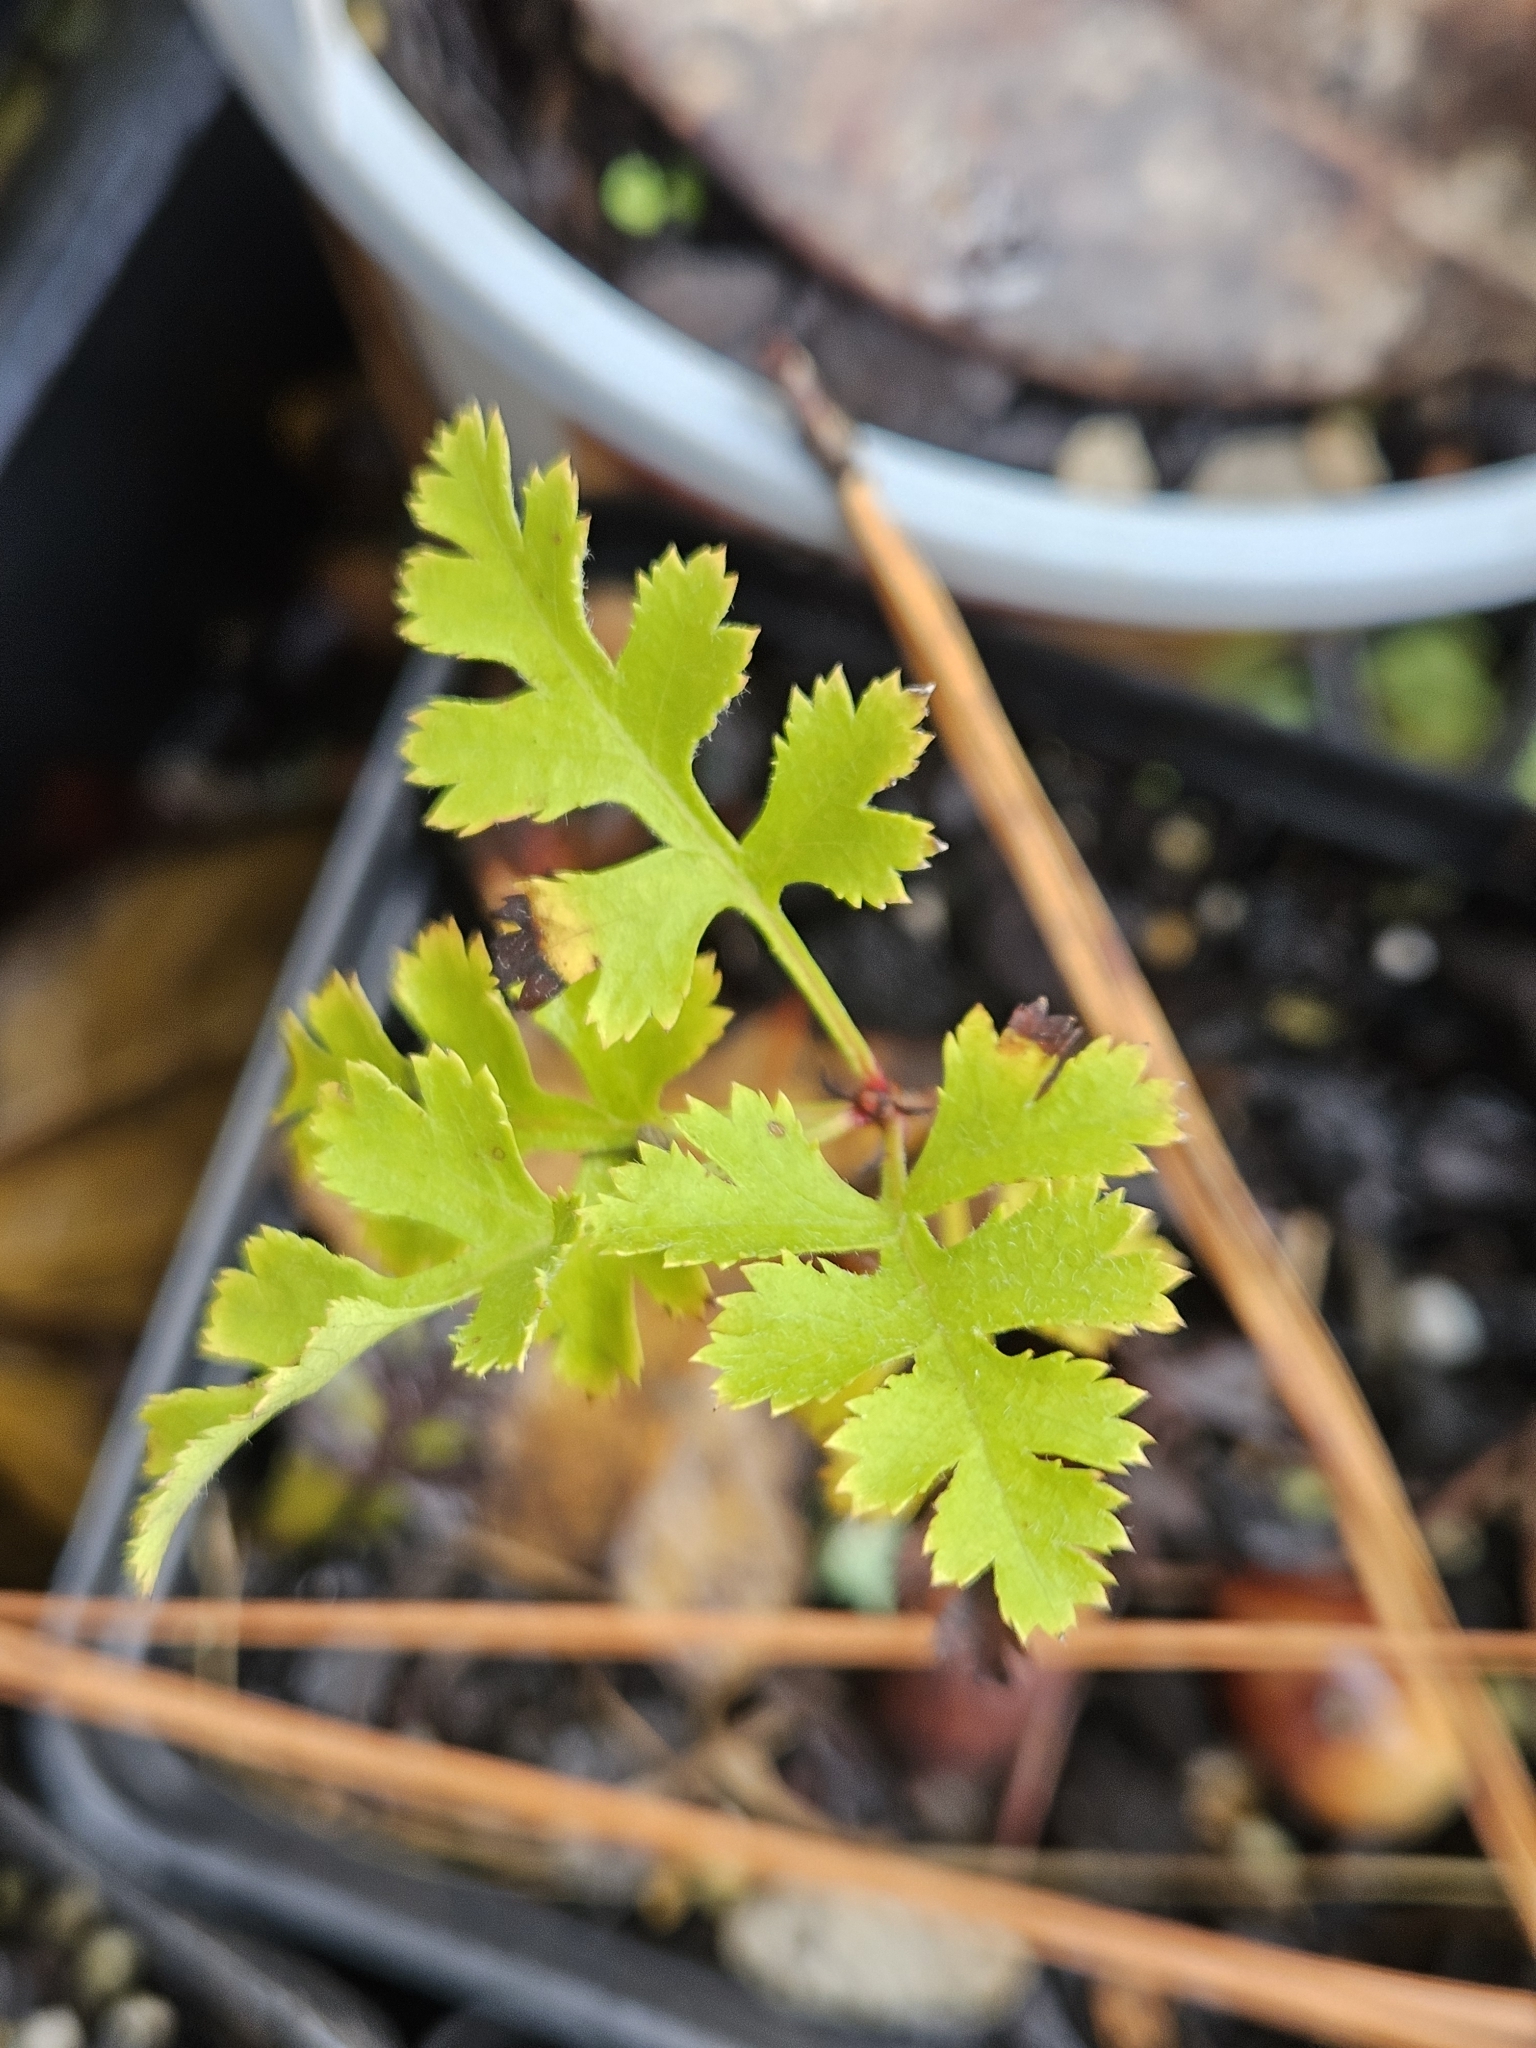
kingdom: Plantae
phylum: Tracheophyta
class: Magnoliopsida
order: Rosales
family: Rosaceae
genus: Crataegus
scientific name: Crataegus marshallii
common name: Parsley-hawthorn
